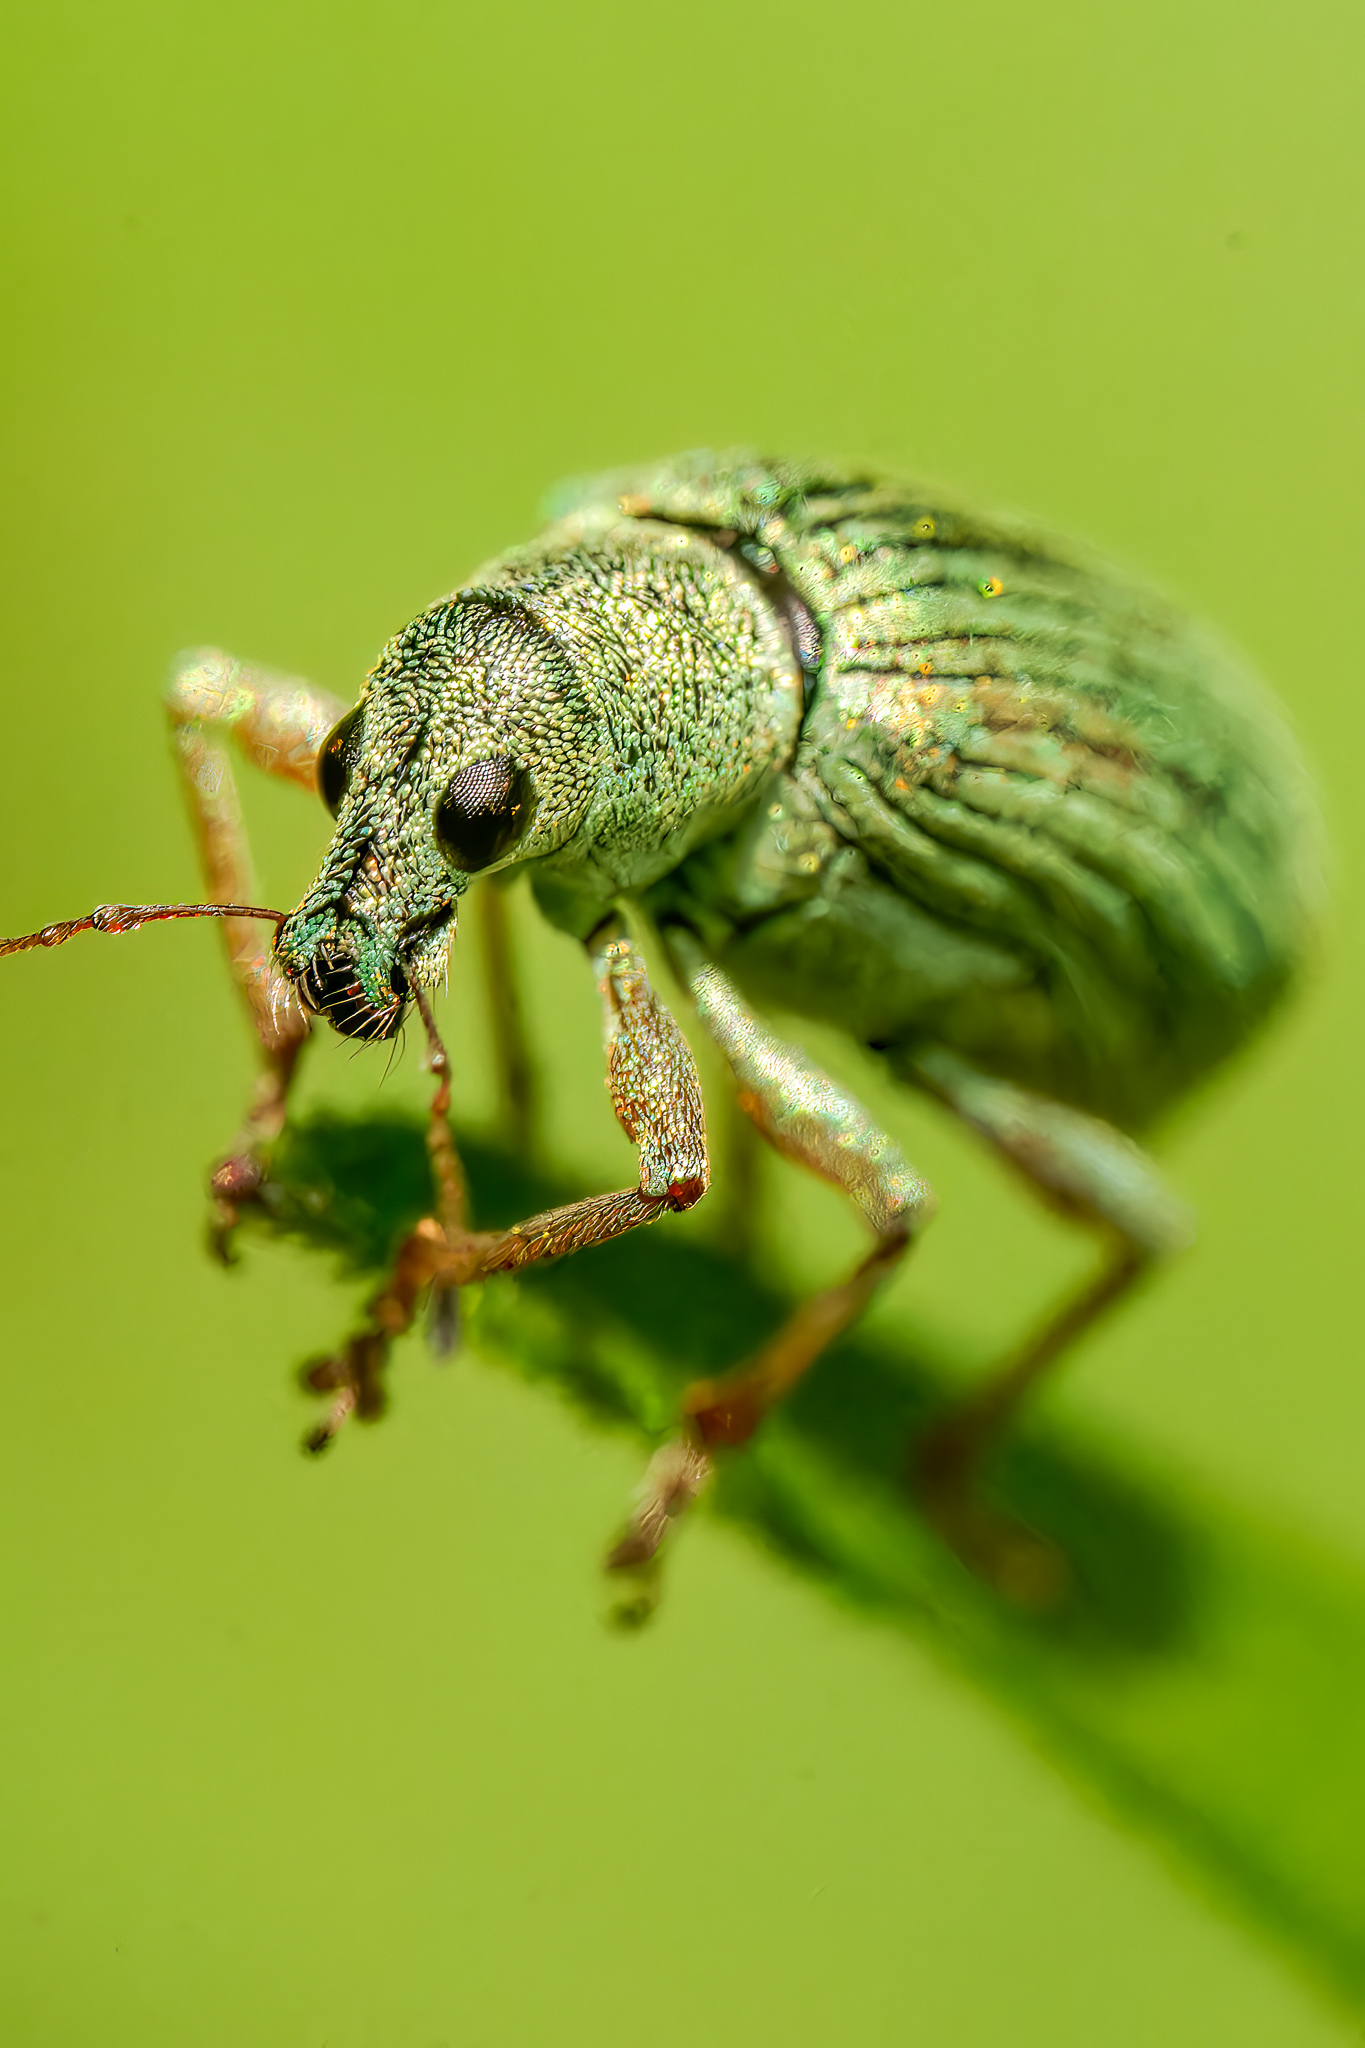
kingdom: Animalia
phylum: Arthropoda
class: Insecta
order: Coleoptera
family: Curculionidae
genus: Polydrusus
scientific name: Polydrusus formosus
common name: Weevil
